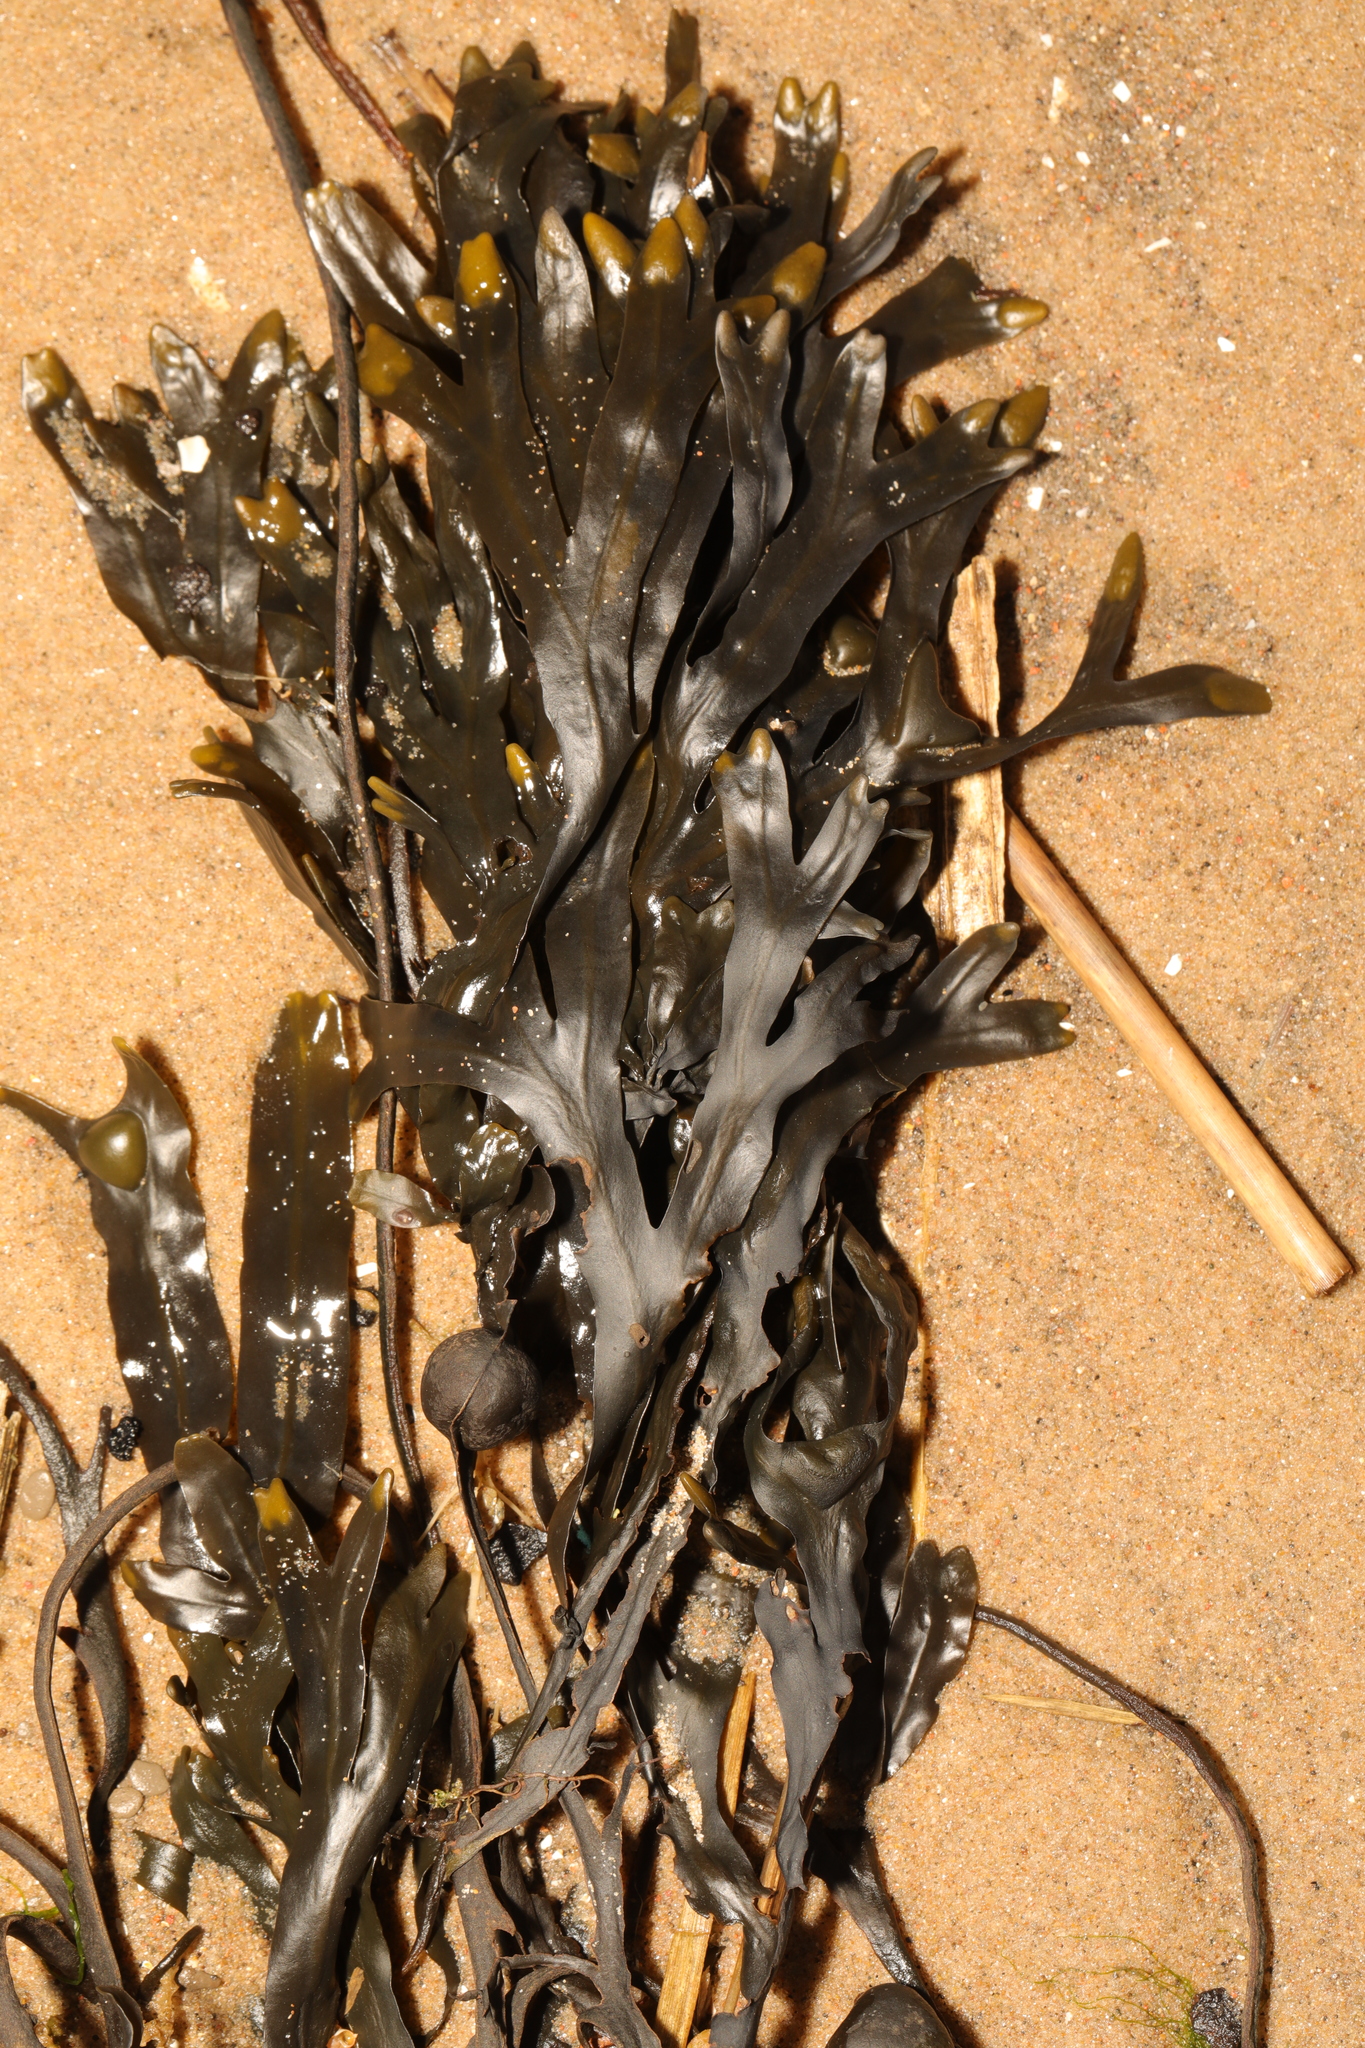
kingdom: Chromista
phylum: Ochrophyta
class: Phaeophyceae
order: Fucales
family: Fucaceae
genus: Fucus
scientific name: Fucus vesiculosus
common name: Bladder wrack
